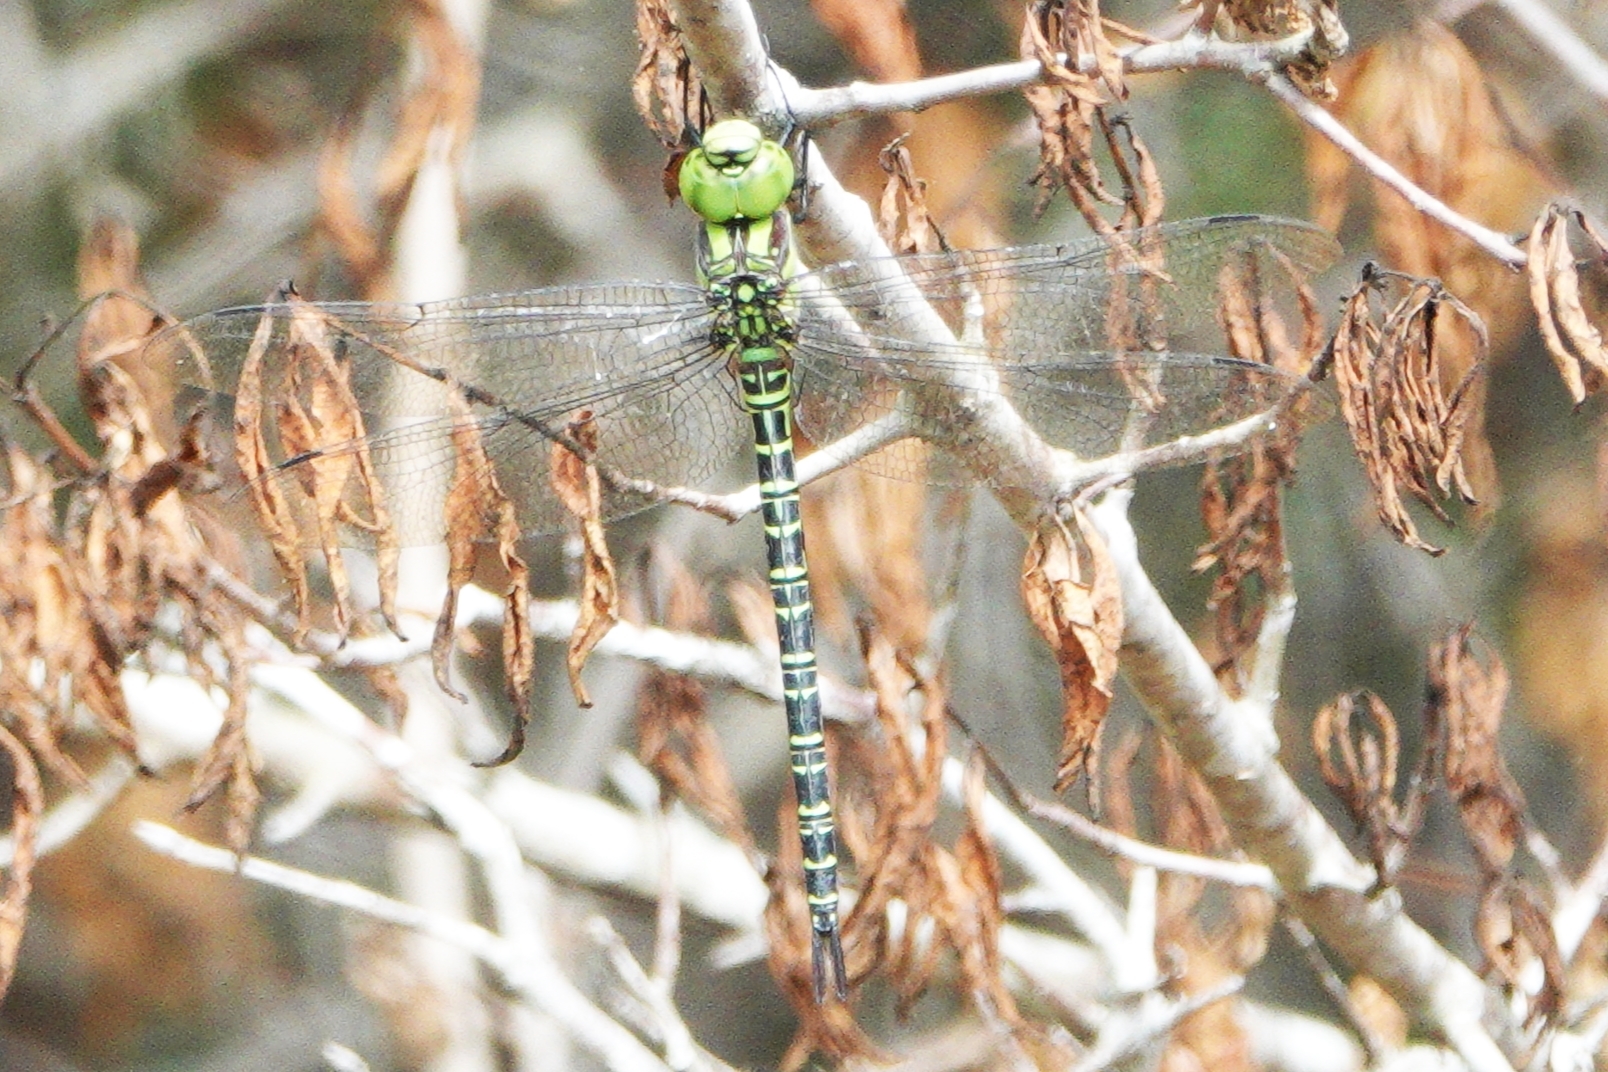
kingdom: Animalia
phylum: Arthropoda
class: Insecta
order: Odonata
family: Aeshnidae
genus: Coryphaeschna
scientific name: Coryphaeschna ingens
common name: Regal darner
